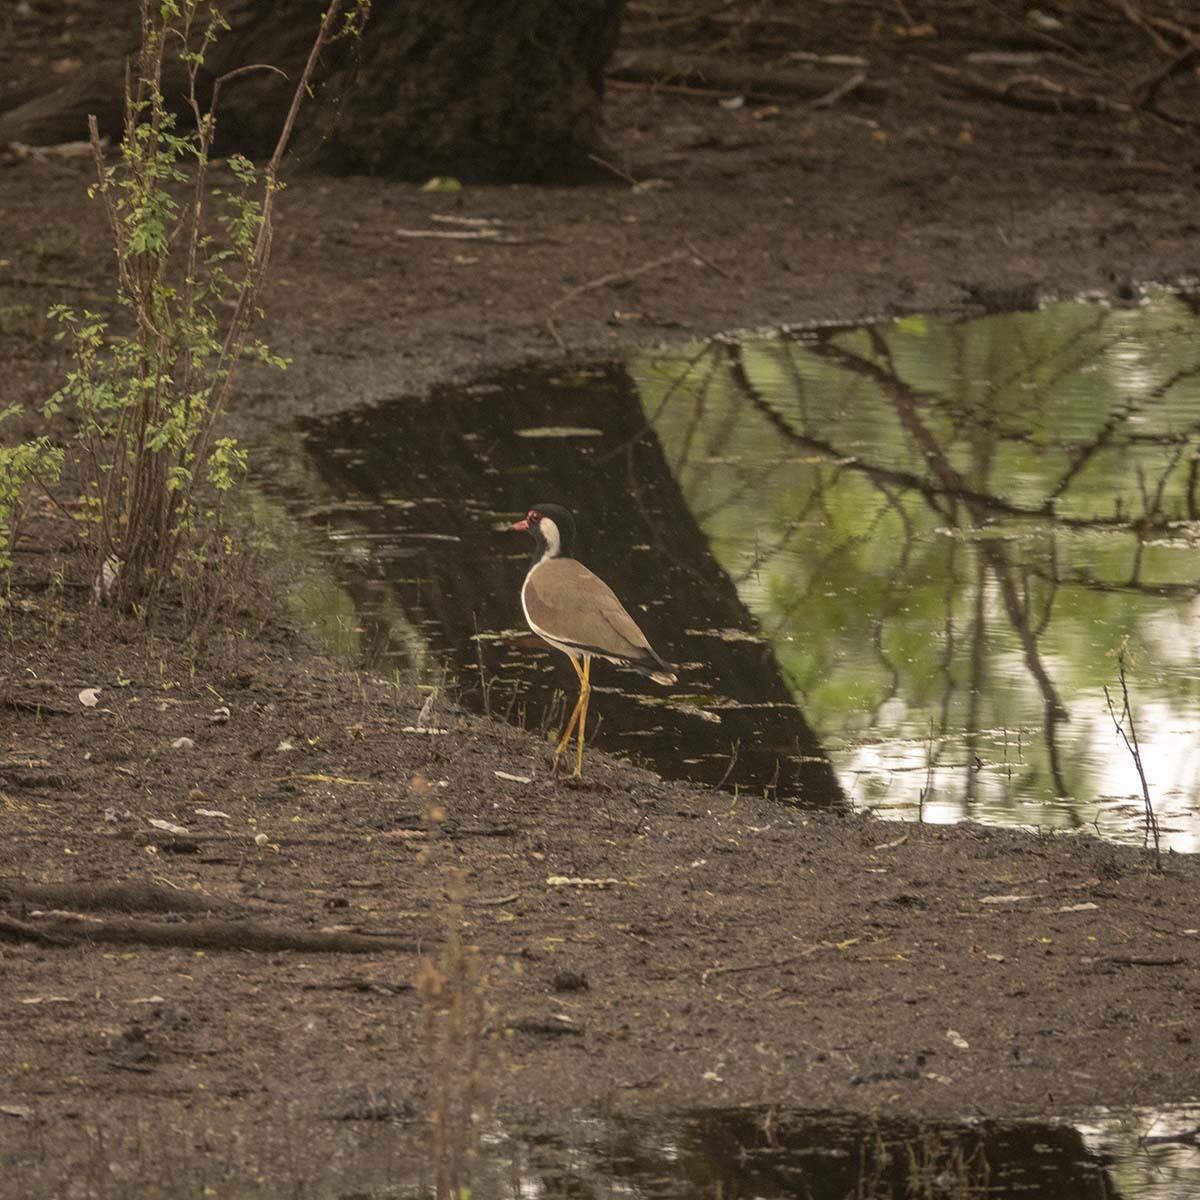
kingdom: Animalia
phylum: Chordata
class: Aves
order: Charadriiformes
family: Charadriidae
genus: Vanellus
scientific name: Vanellus indicus
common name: Red-wattled lapwing
